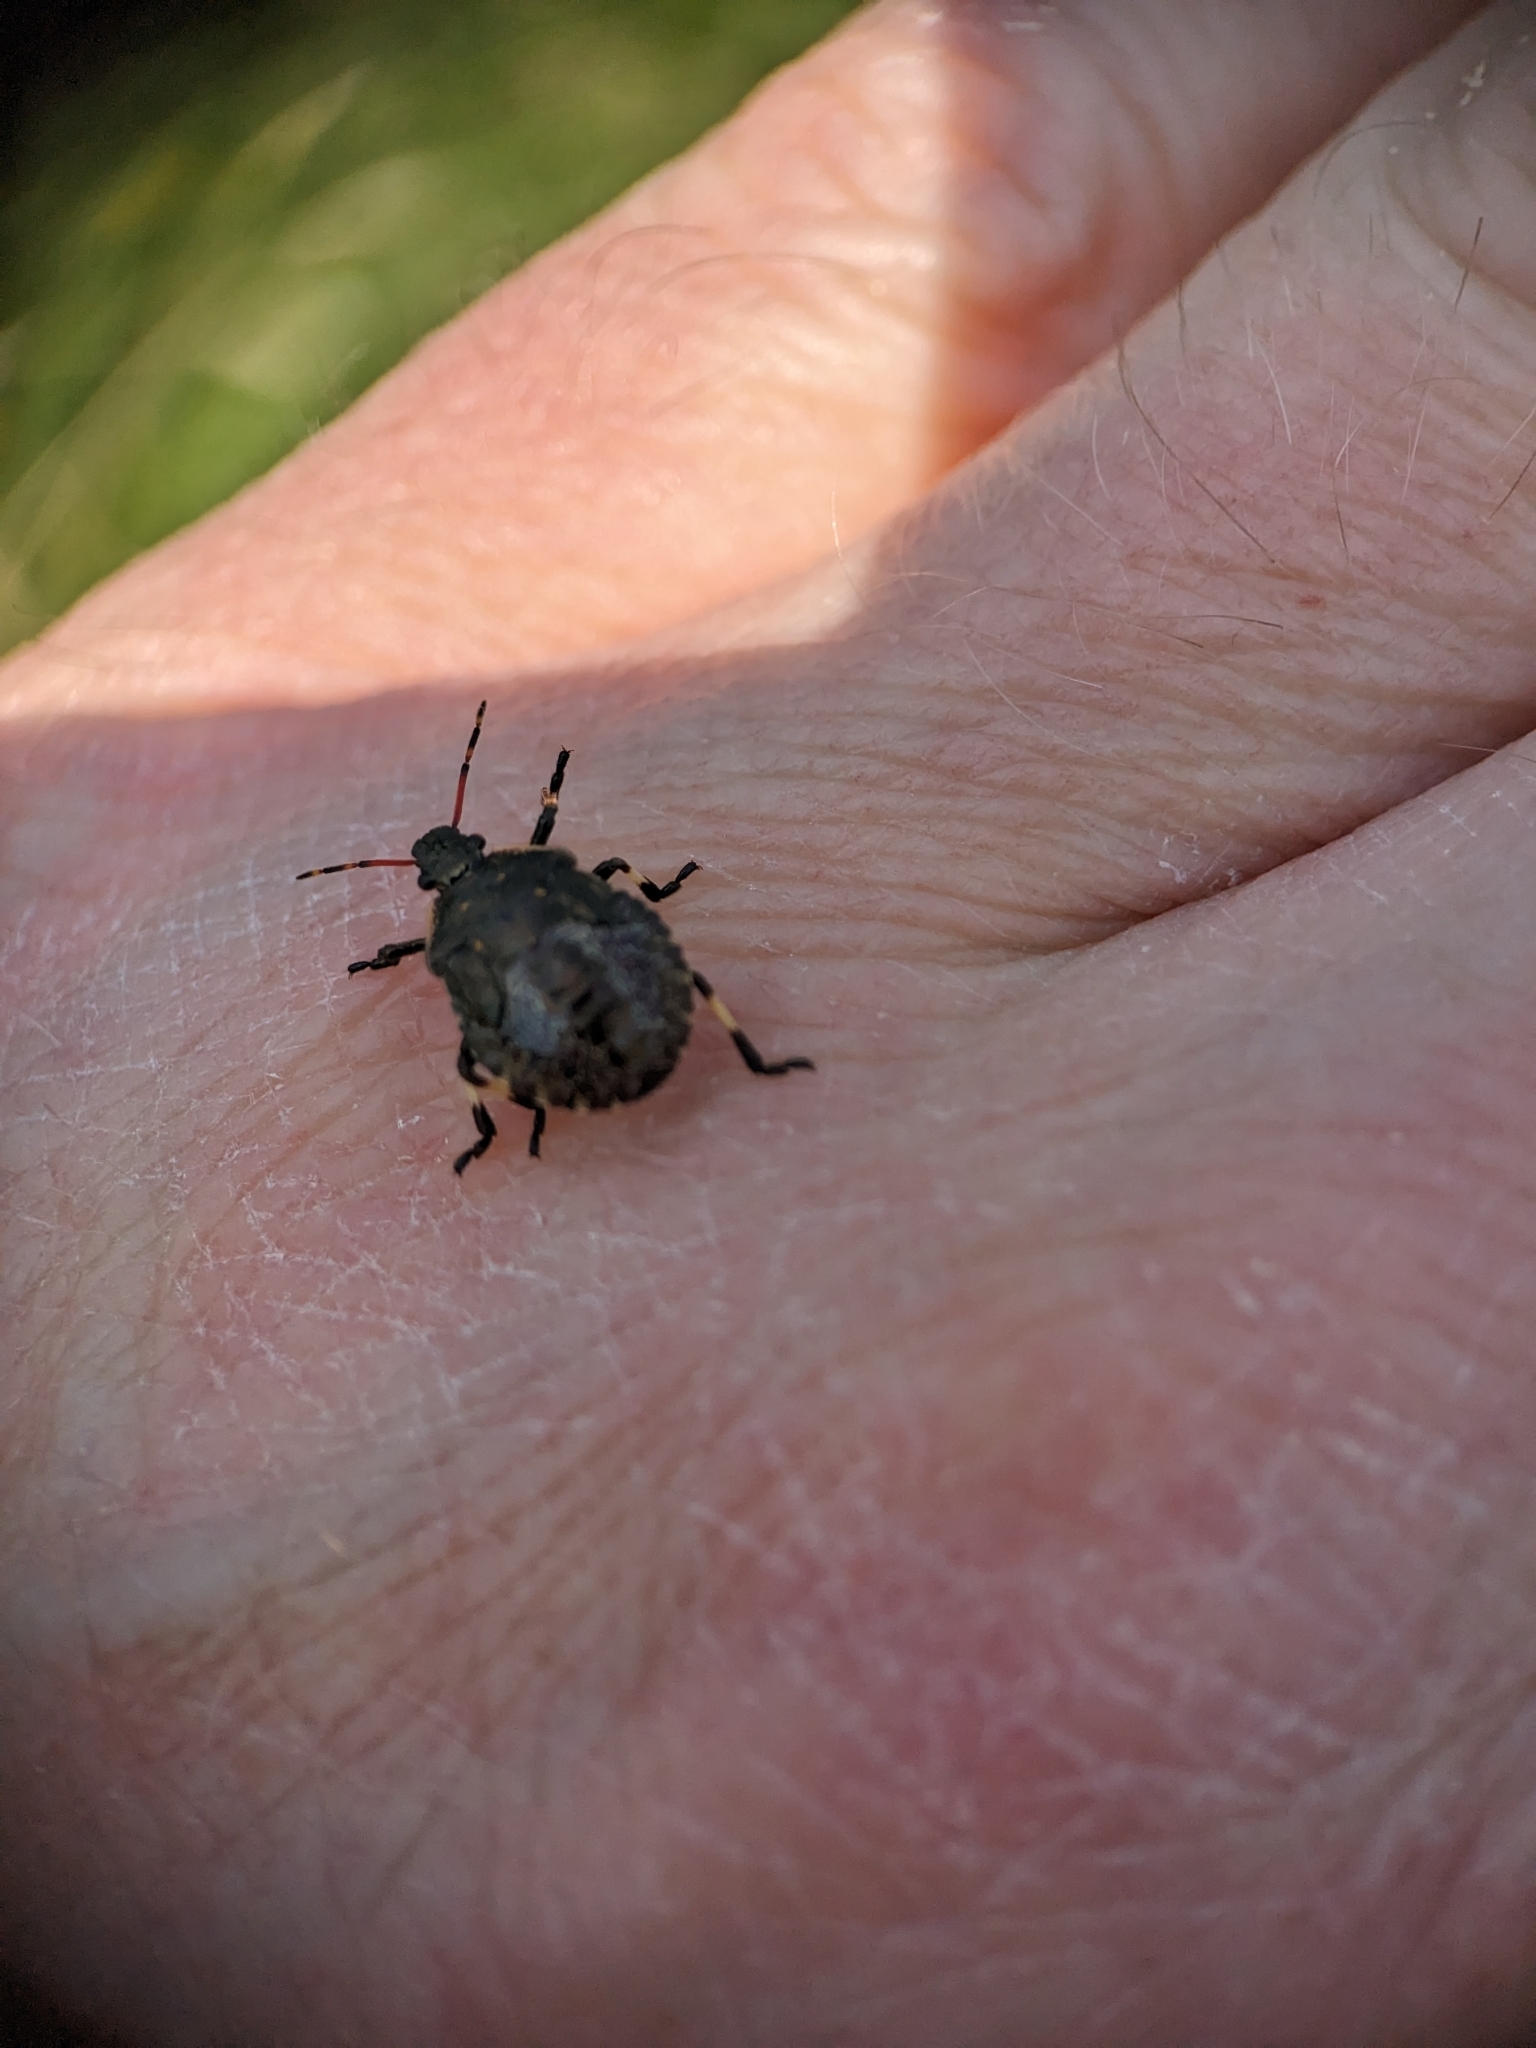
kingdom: Animalia
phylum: Arthropoda
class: Insecta
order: Hemiptera
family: Pentatomidae
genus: Picromerus
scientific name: Picromerus bidens
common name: Spiked shieldbug
